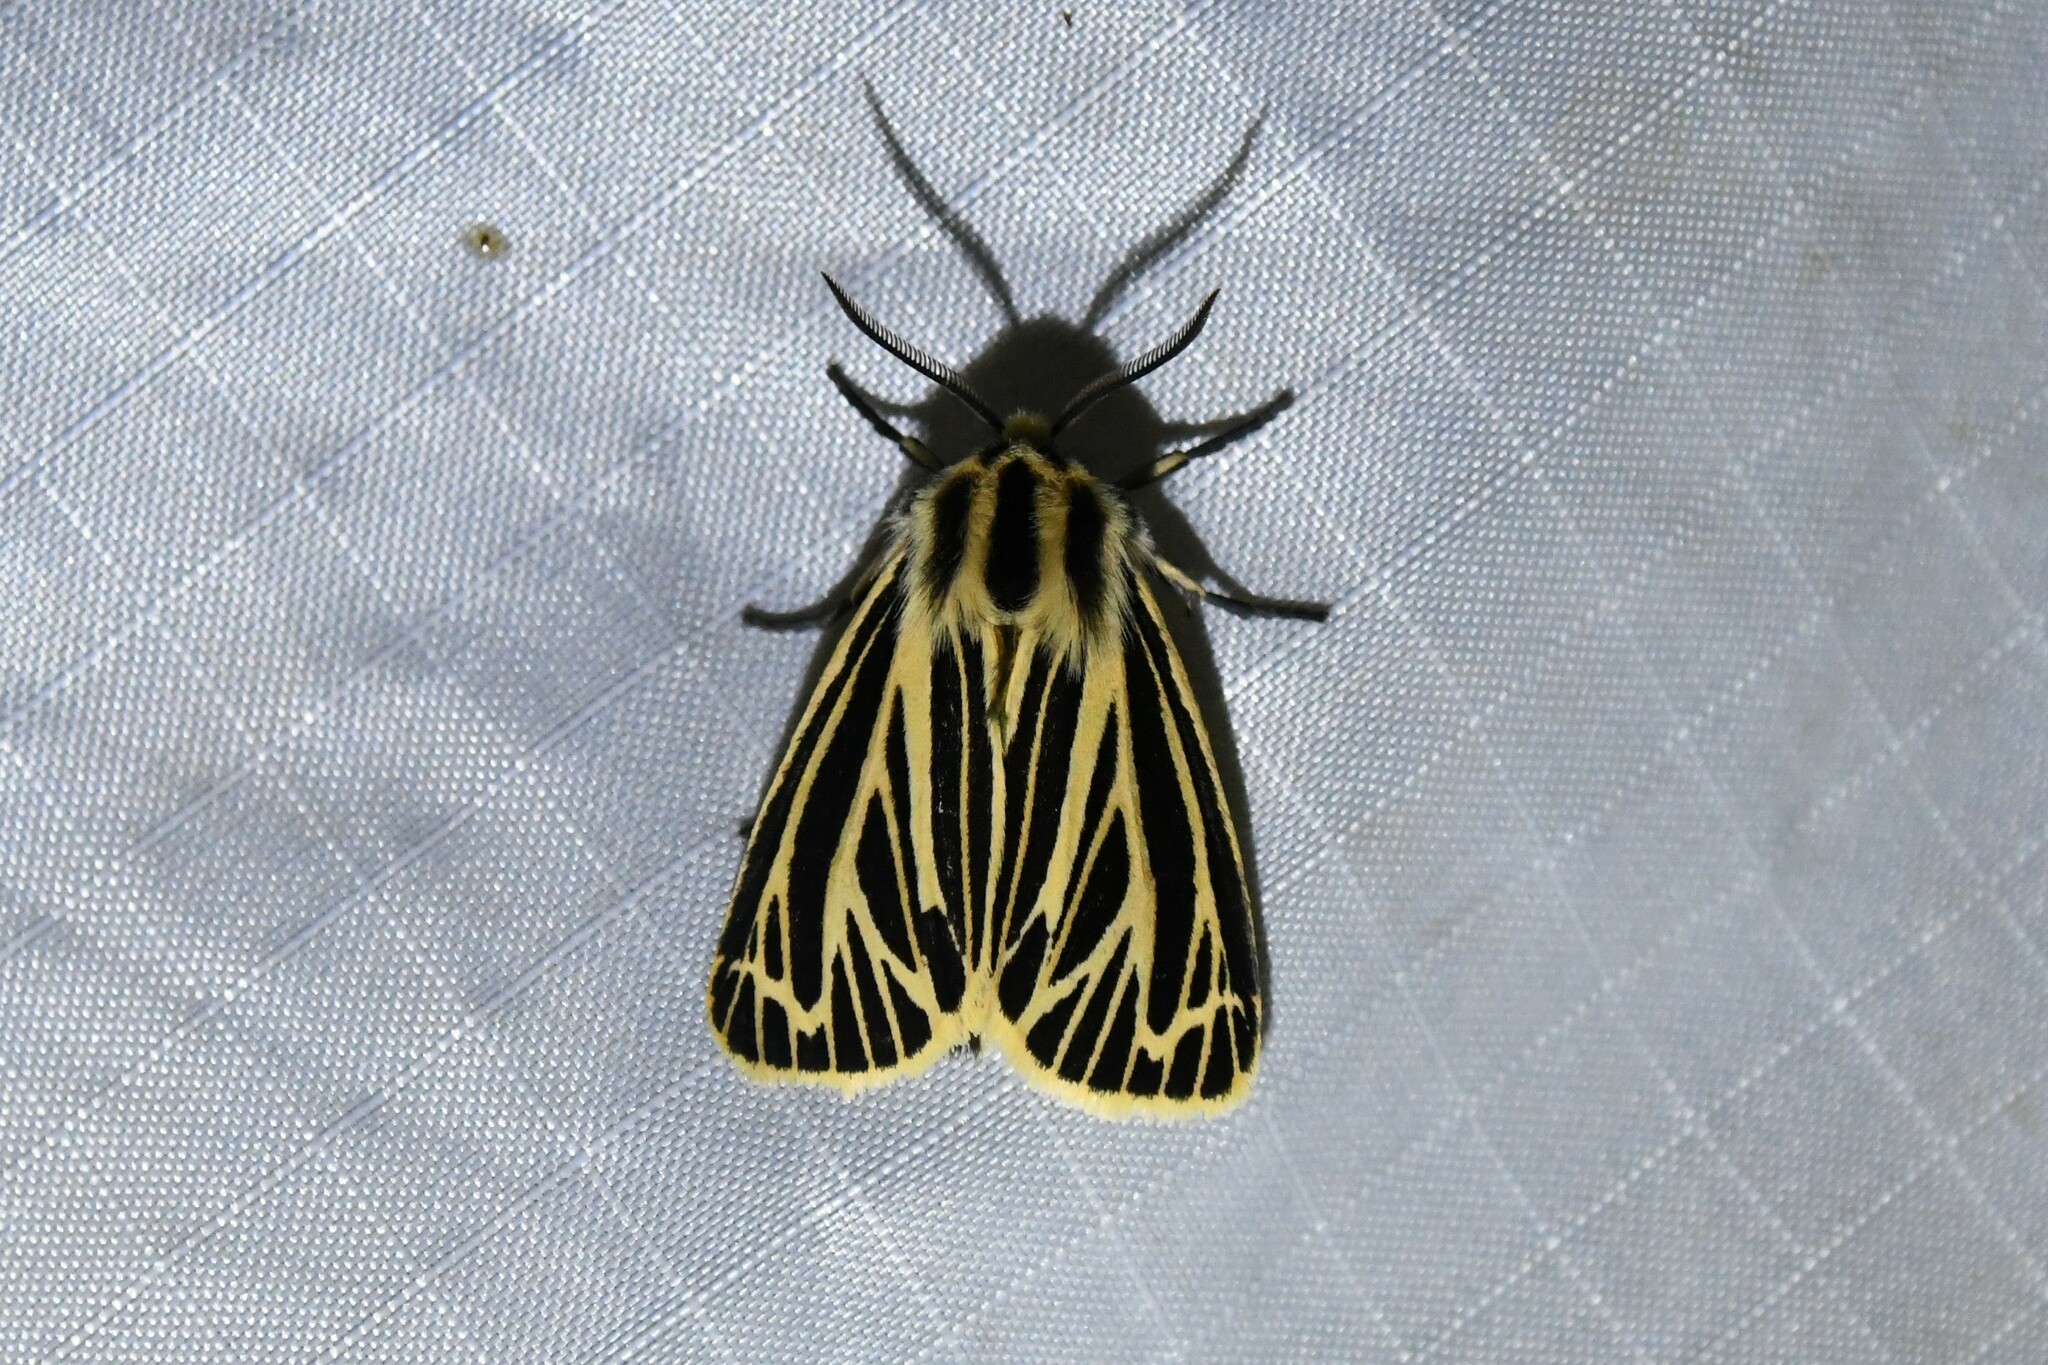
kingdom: Animalia
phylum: Arthropoda
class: Insecta
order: Lepidoptera
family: Erebidae
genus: Grammia
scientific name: Grammia virguncula
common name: Little tiger moth
